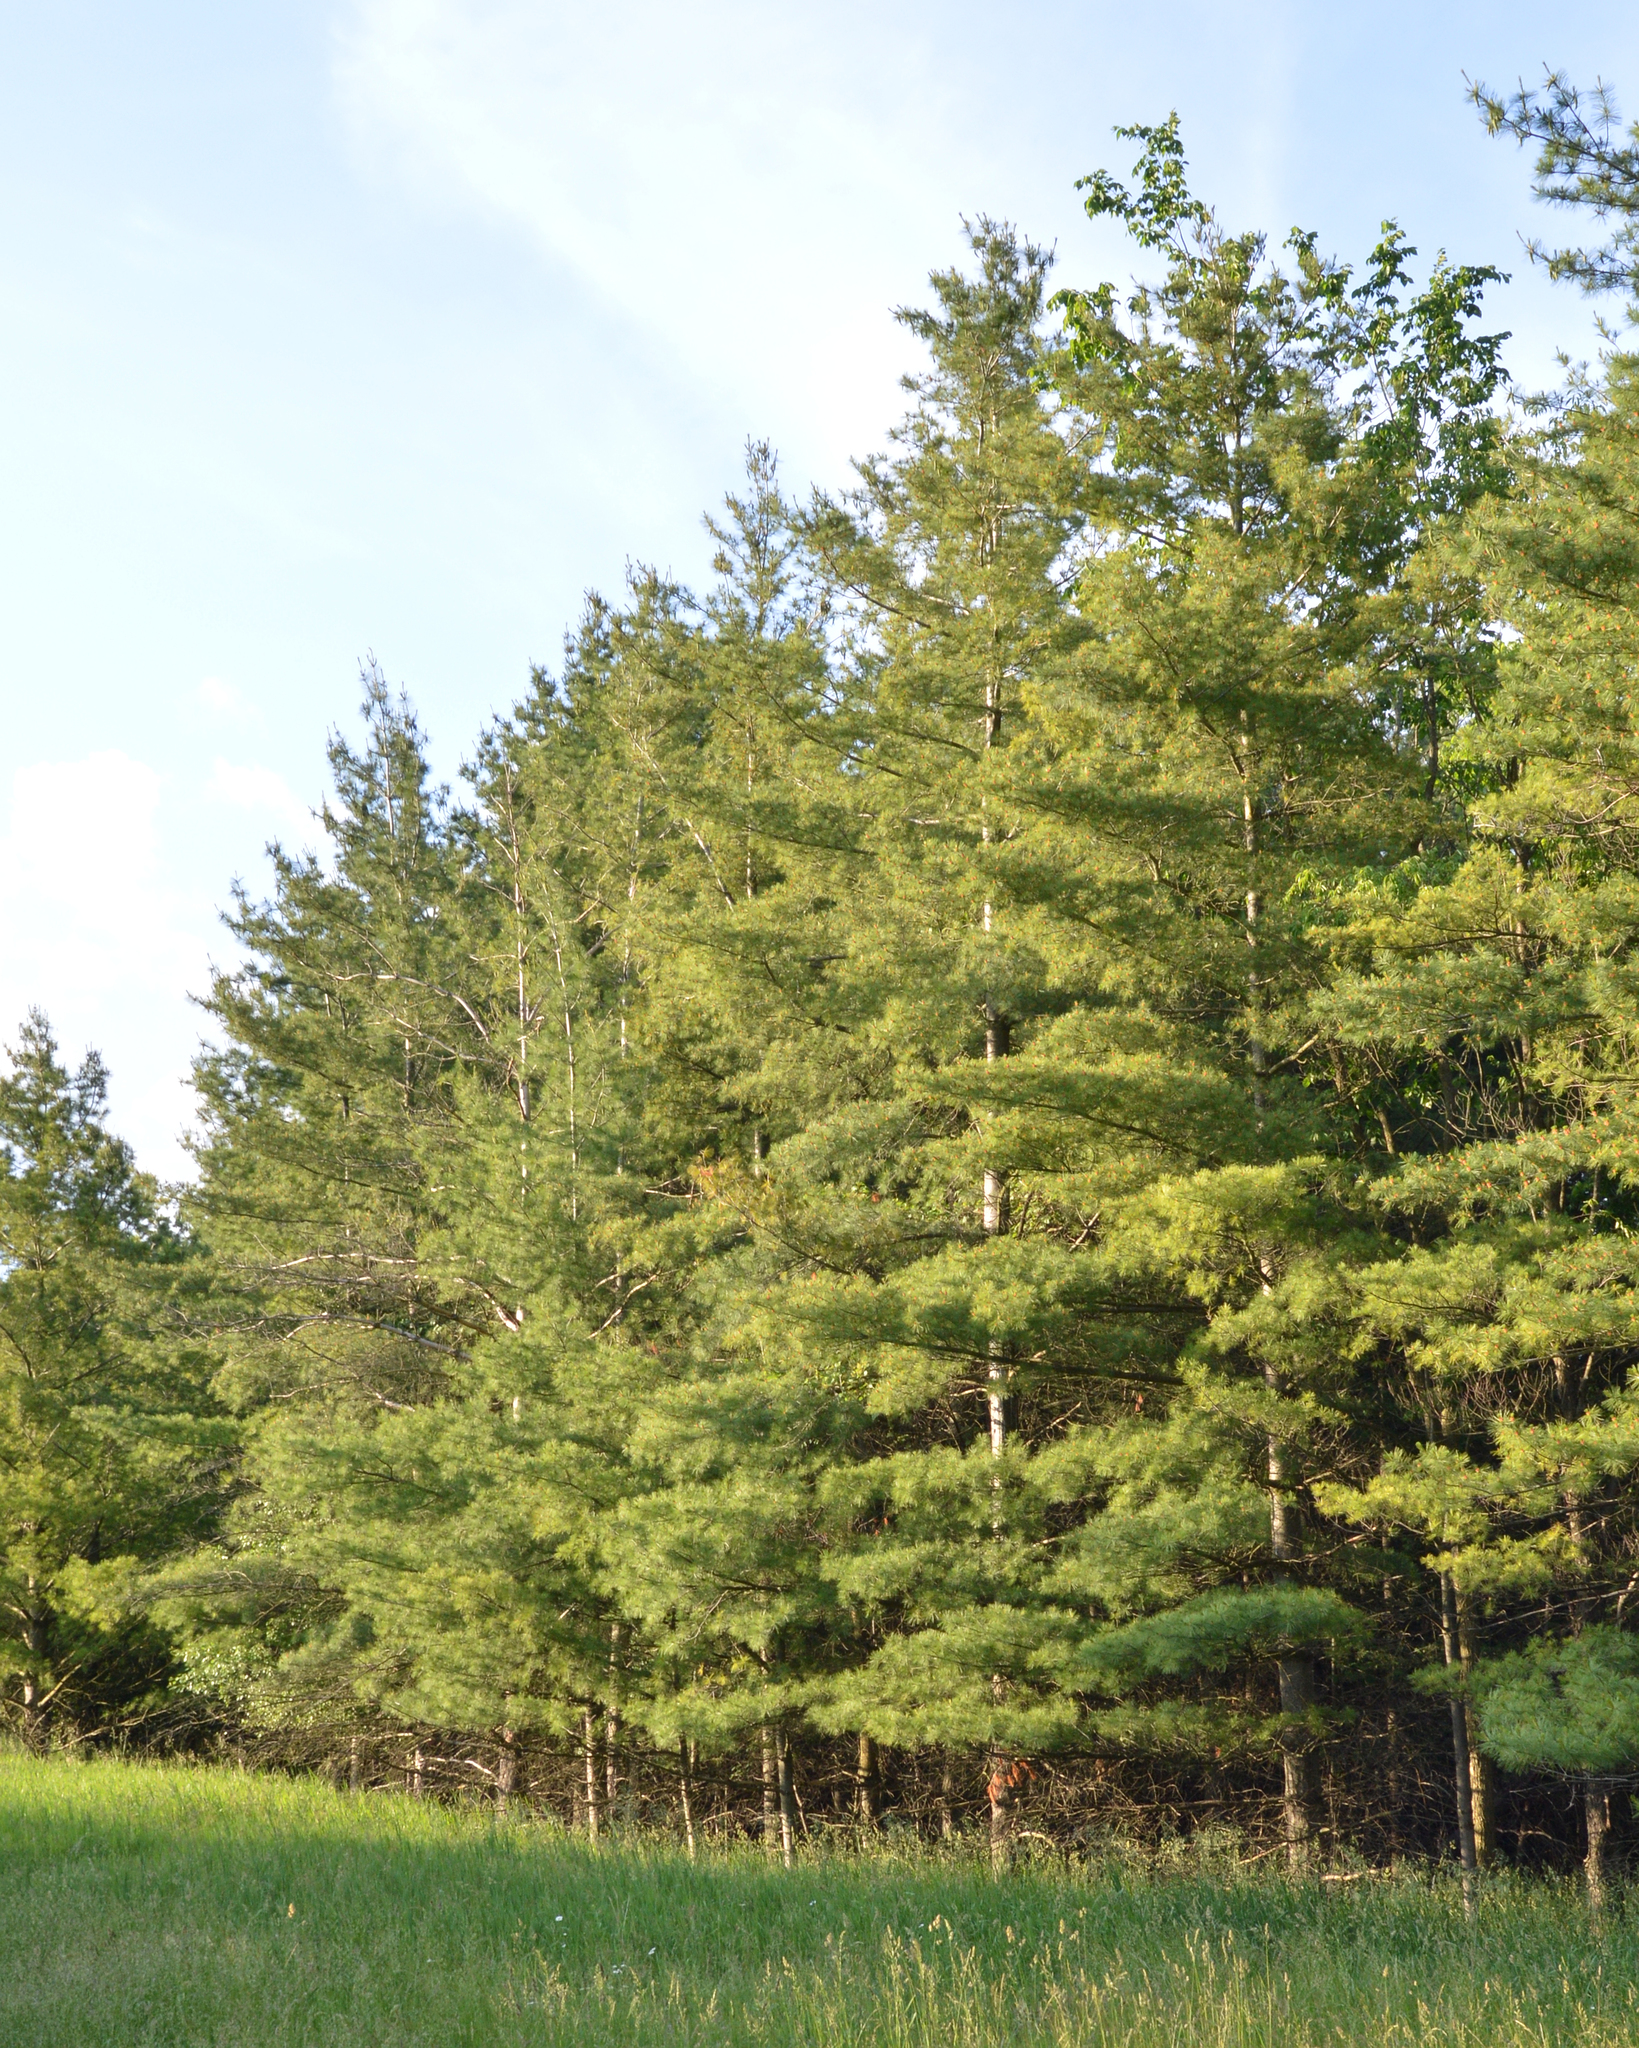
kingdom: Plantae
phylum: Tracheophyta
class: Pinopsida
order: Pinales
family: Pinaceae
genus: Pinus
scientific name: Pinus strobus
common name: Weymouth pine
